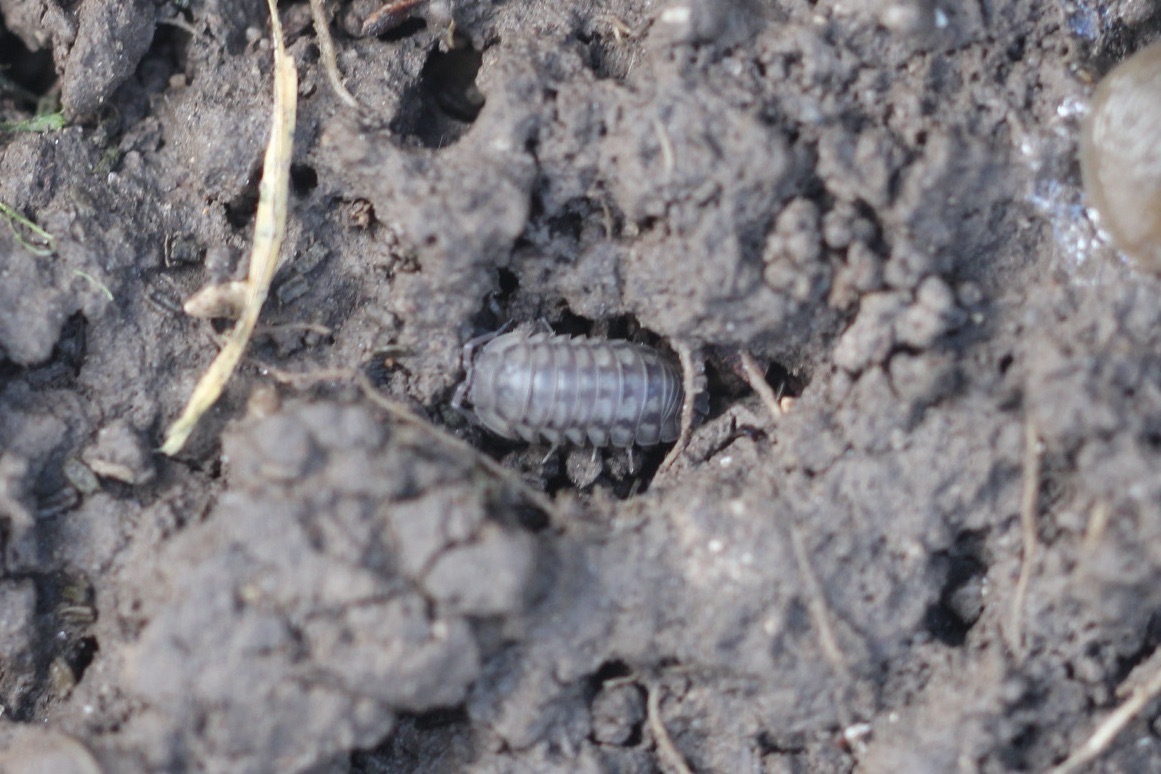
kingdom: Animalia
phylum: Arthropoda
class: Malacostraca
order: Isopoda
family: Armadillidiidae
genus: Armadillidium
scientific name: Armadillidium nasatum
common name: Isopod
